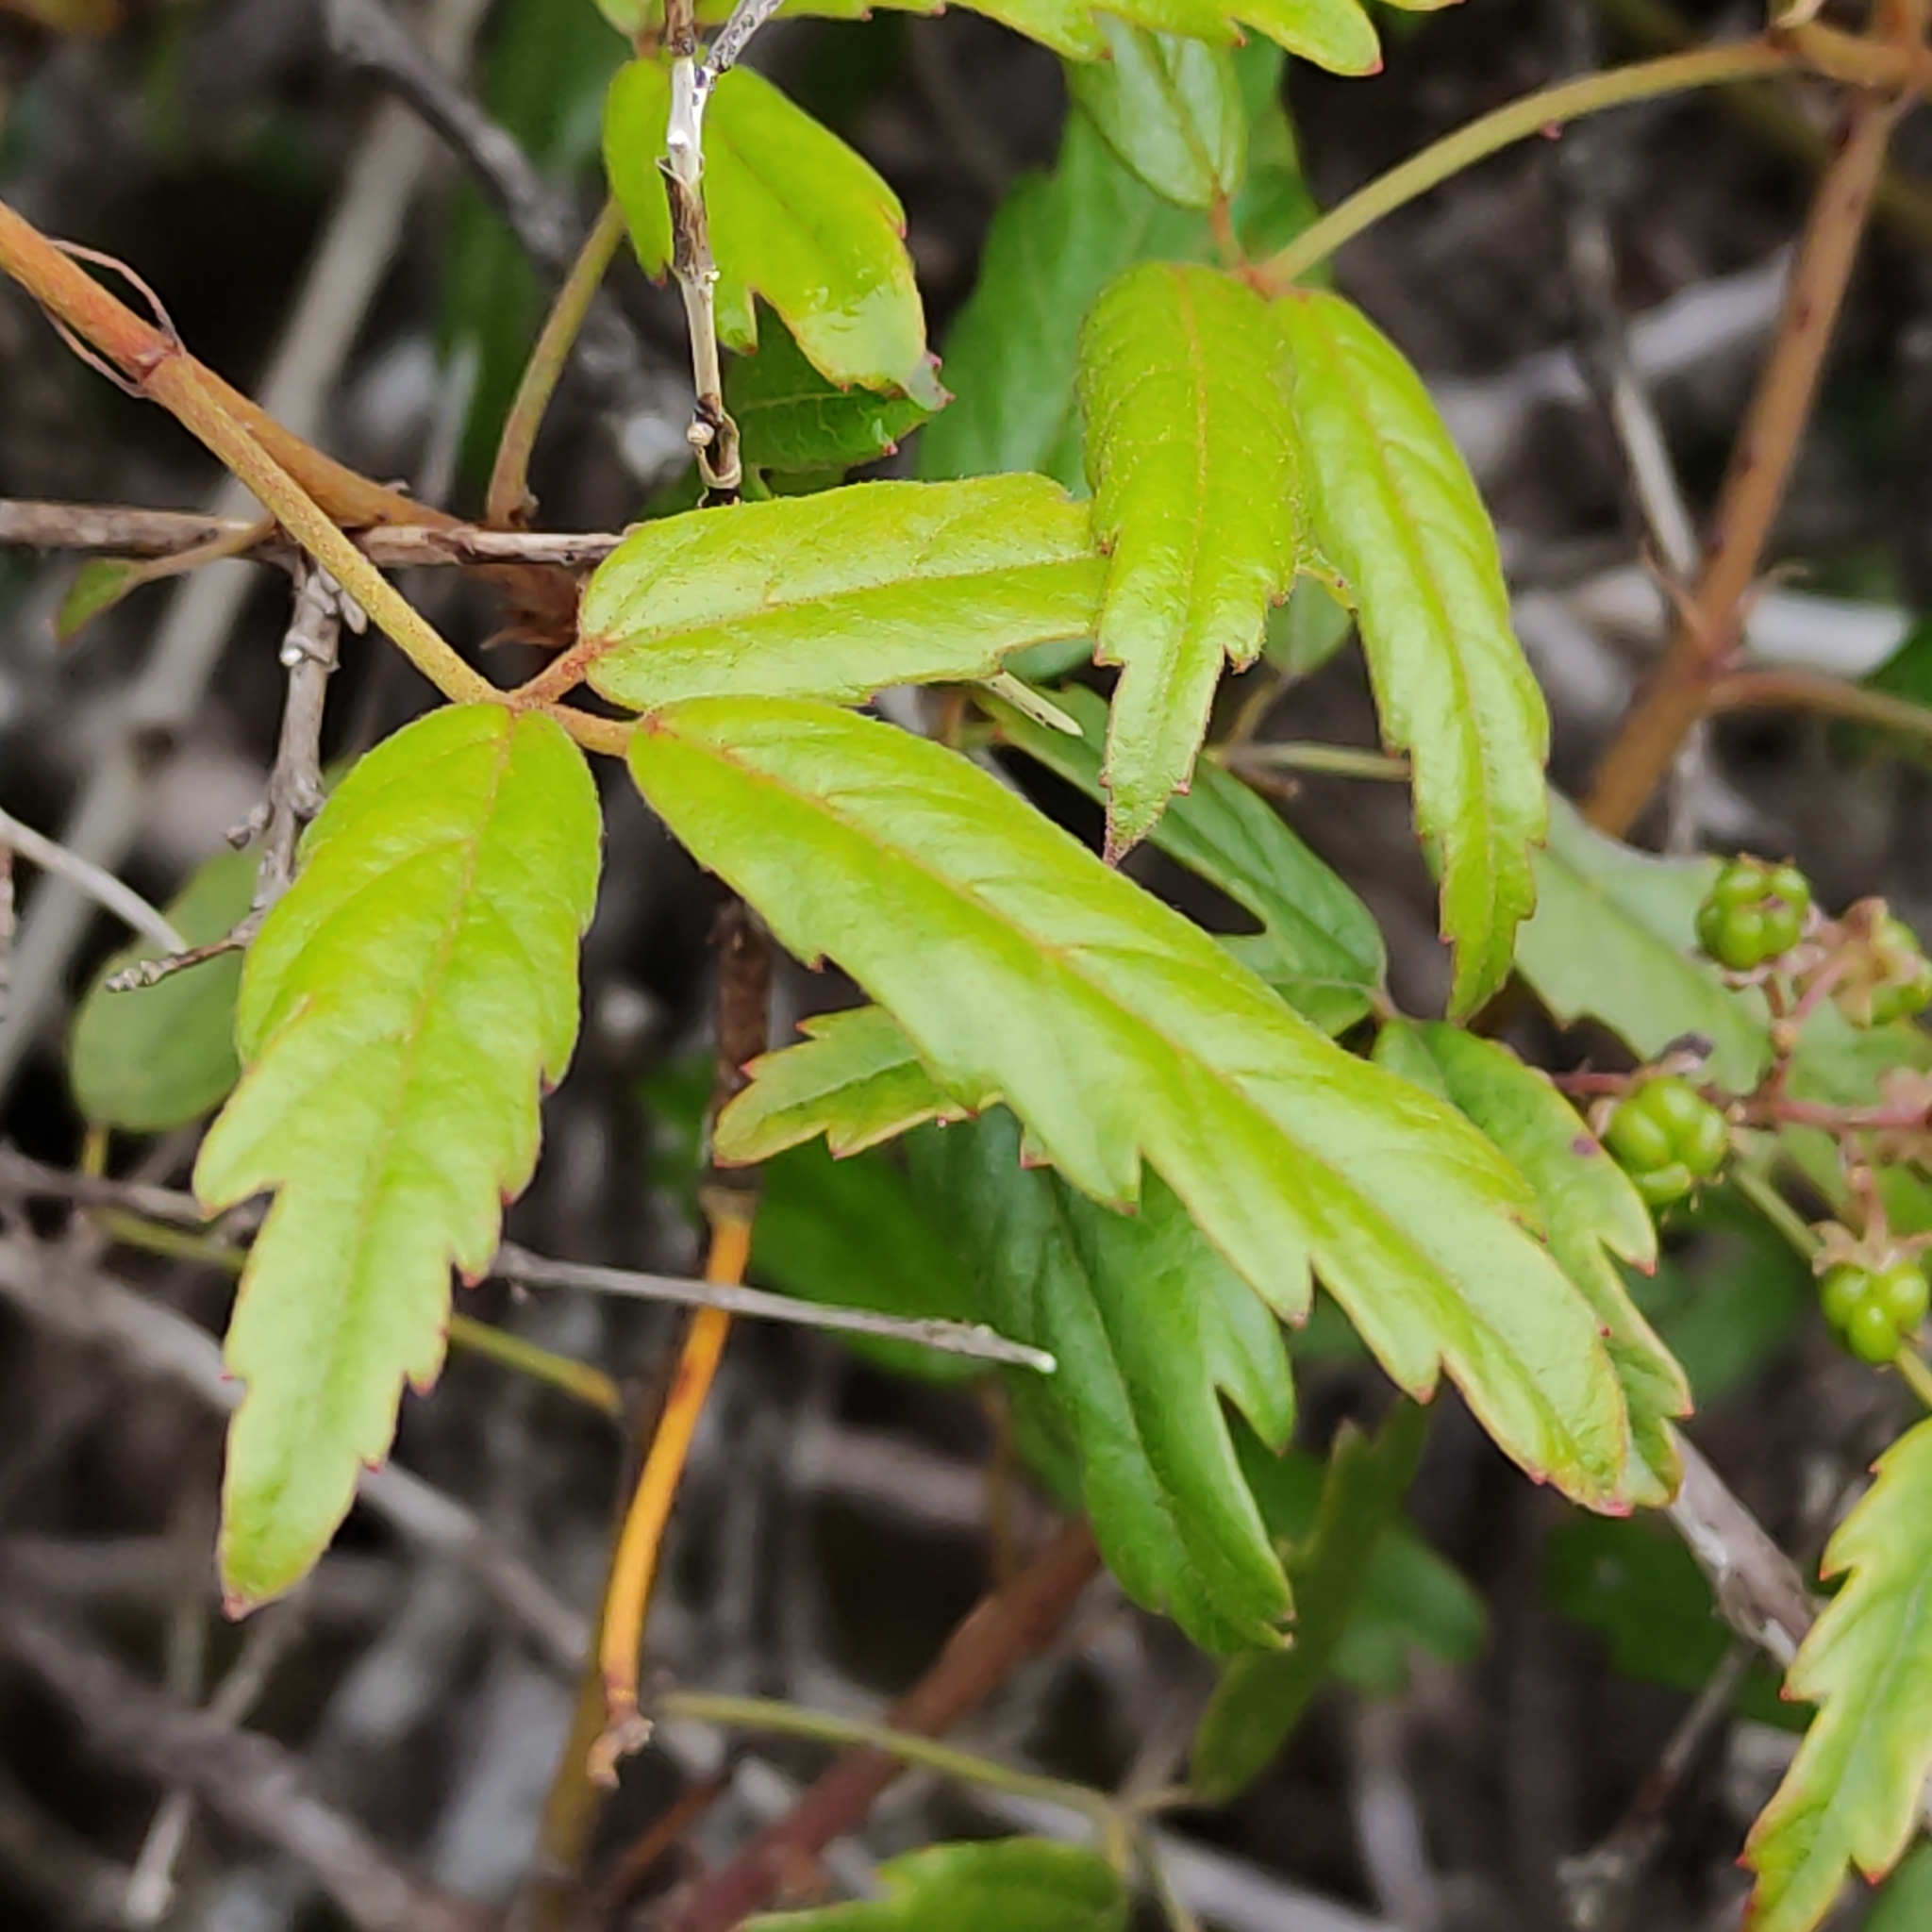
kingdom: Plantae
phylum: Tracheophyta
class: Magnoliopsida
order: Rosales
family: Rosaceae
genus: Rubus
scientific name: Rubus schmidelioides
